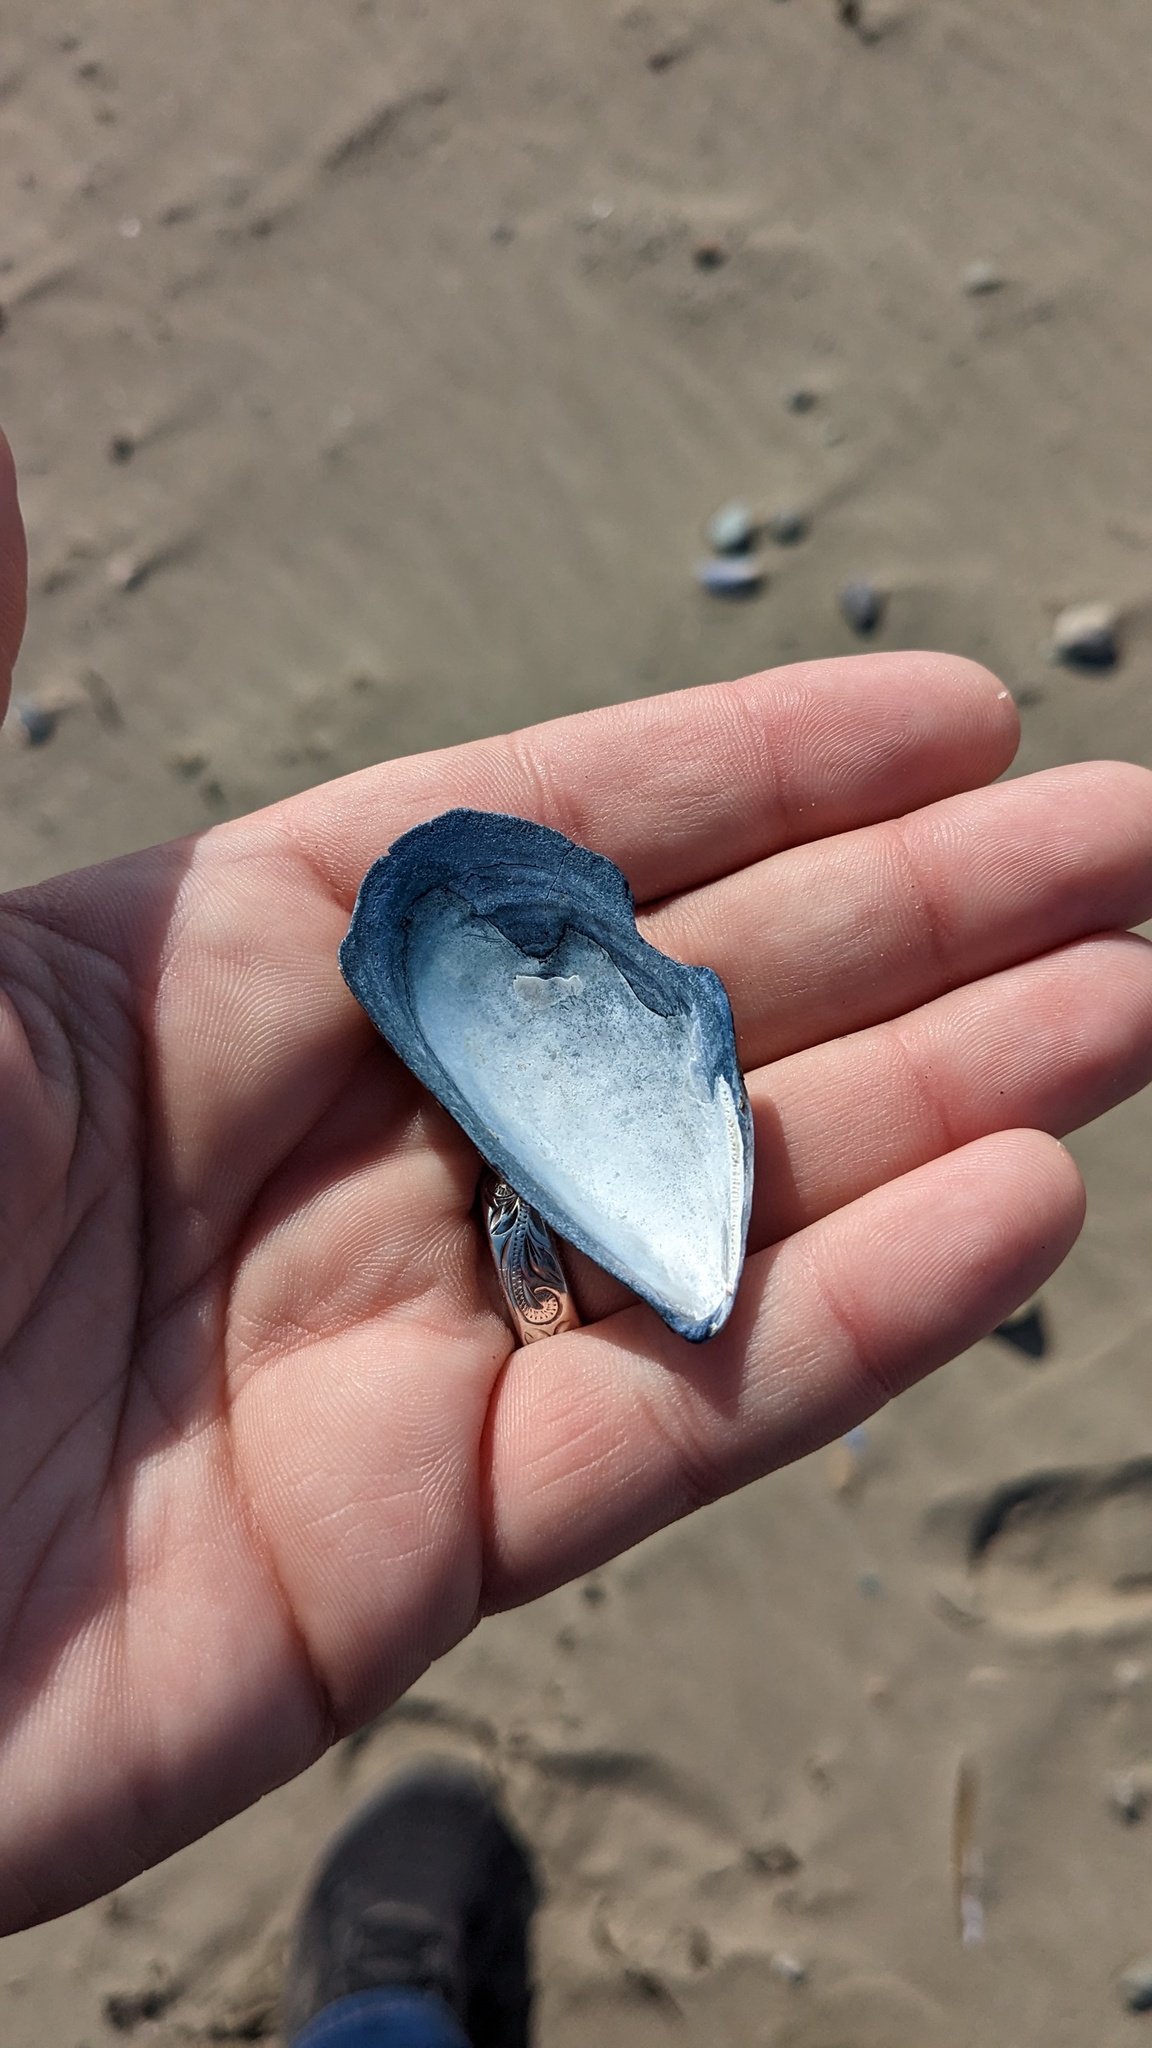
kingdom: Animalia
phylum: Mollusca
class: Bivalvia
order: Mytilida
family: Mytilidae
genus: Mytilus
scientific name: Mytilus
